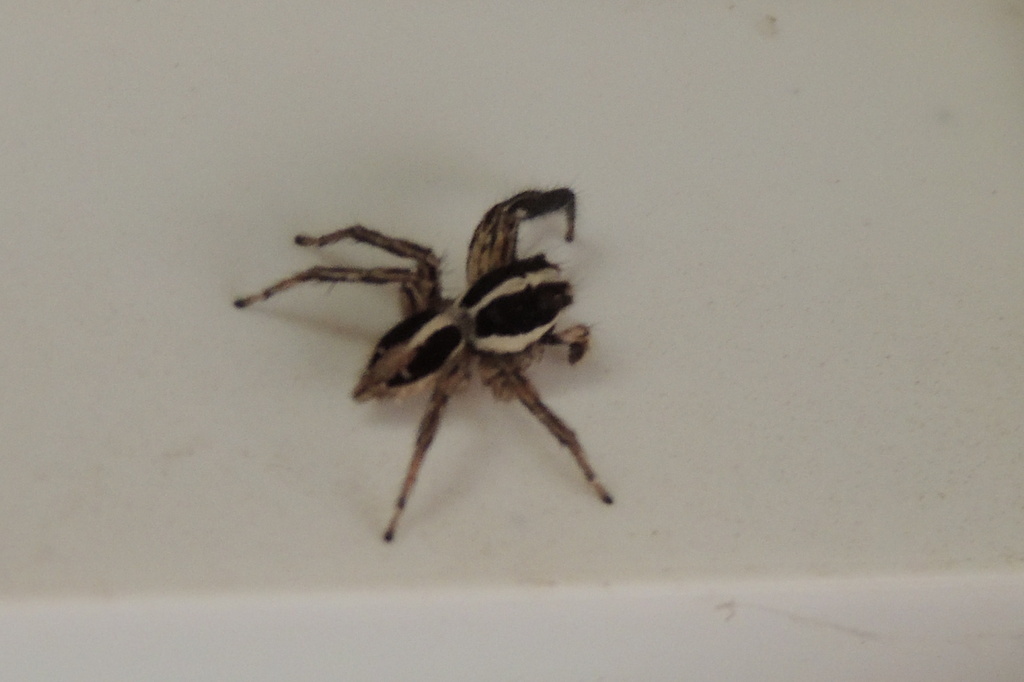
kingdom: Animalia
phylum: Arthropoda
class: Arachnida
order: Araneae
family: Salticidae
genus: Plexippus
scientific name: Plexippus paykulli
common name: Pantropical jumper
